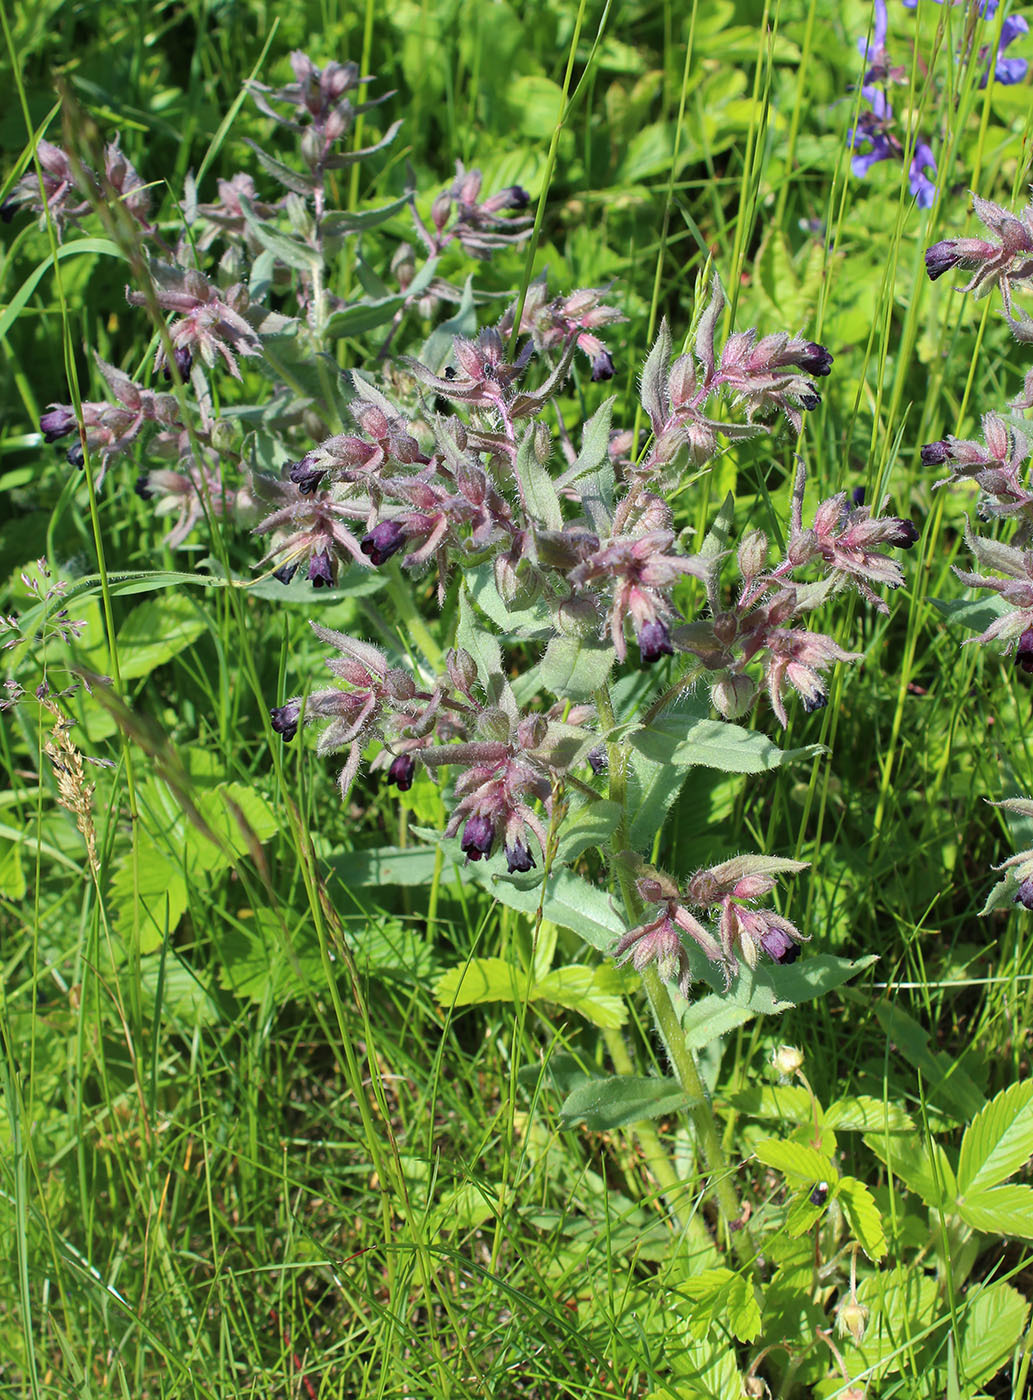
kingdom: Plantae
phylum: Tracheophyta
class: Magnoliopsida
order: Boraginales
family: Boraginaceae
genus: Nonea
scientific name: Nonea pulla
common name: Brown nonea
